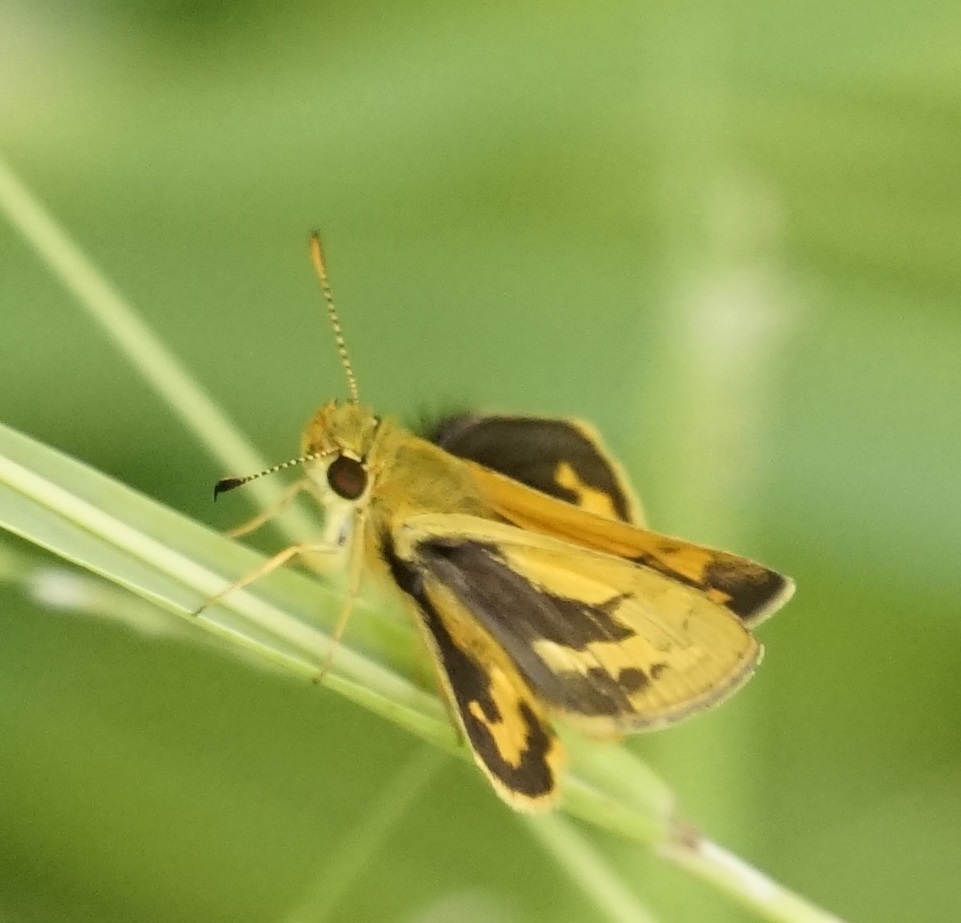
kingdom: Animalia
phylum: Arthropoda
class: Insecta
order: Lepidoptera
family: Hesperiidae
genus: Ocybadistes
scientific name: Ocybadistes walkeri
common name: Yellow-banded dart
